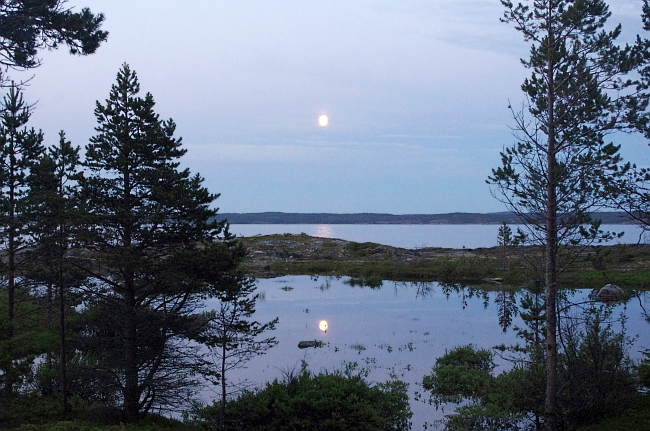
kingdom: Plantae
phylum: Tracheophyta
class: Pinopsida
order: Pinales
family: Pinaceae
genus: Pinus
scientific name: Pinus sylvestris
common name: Scots pine
